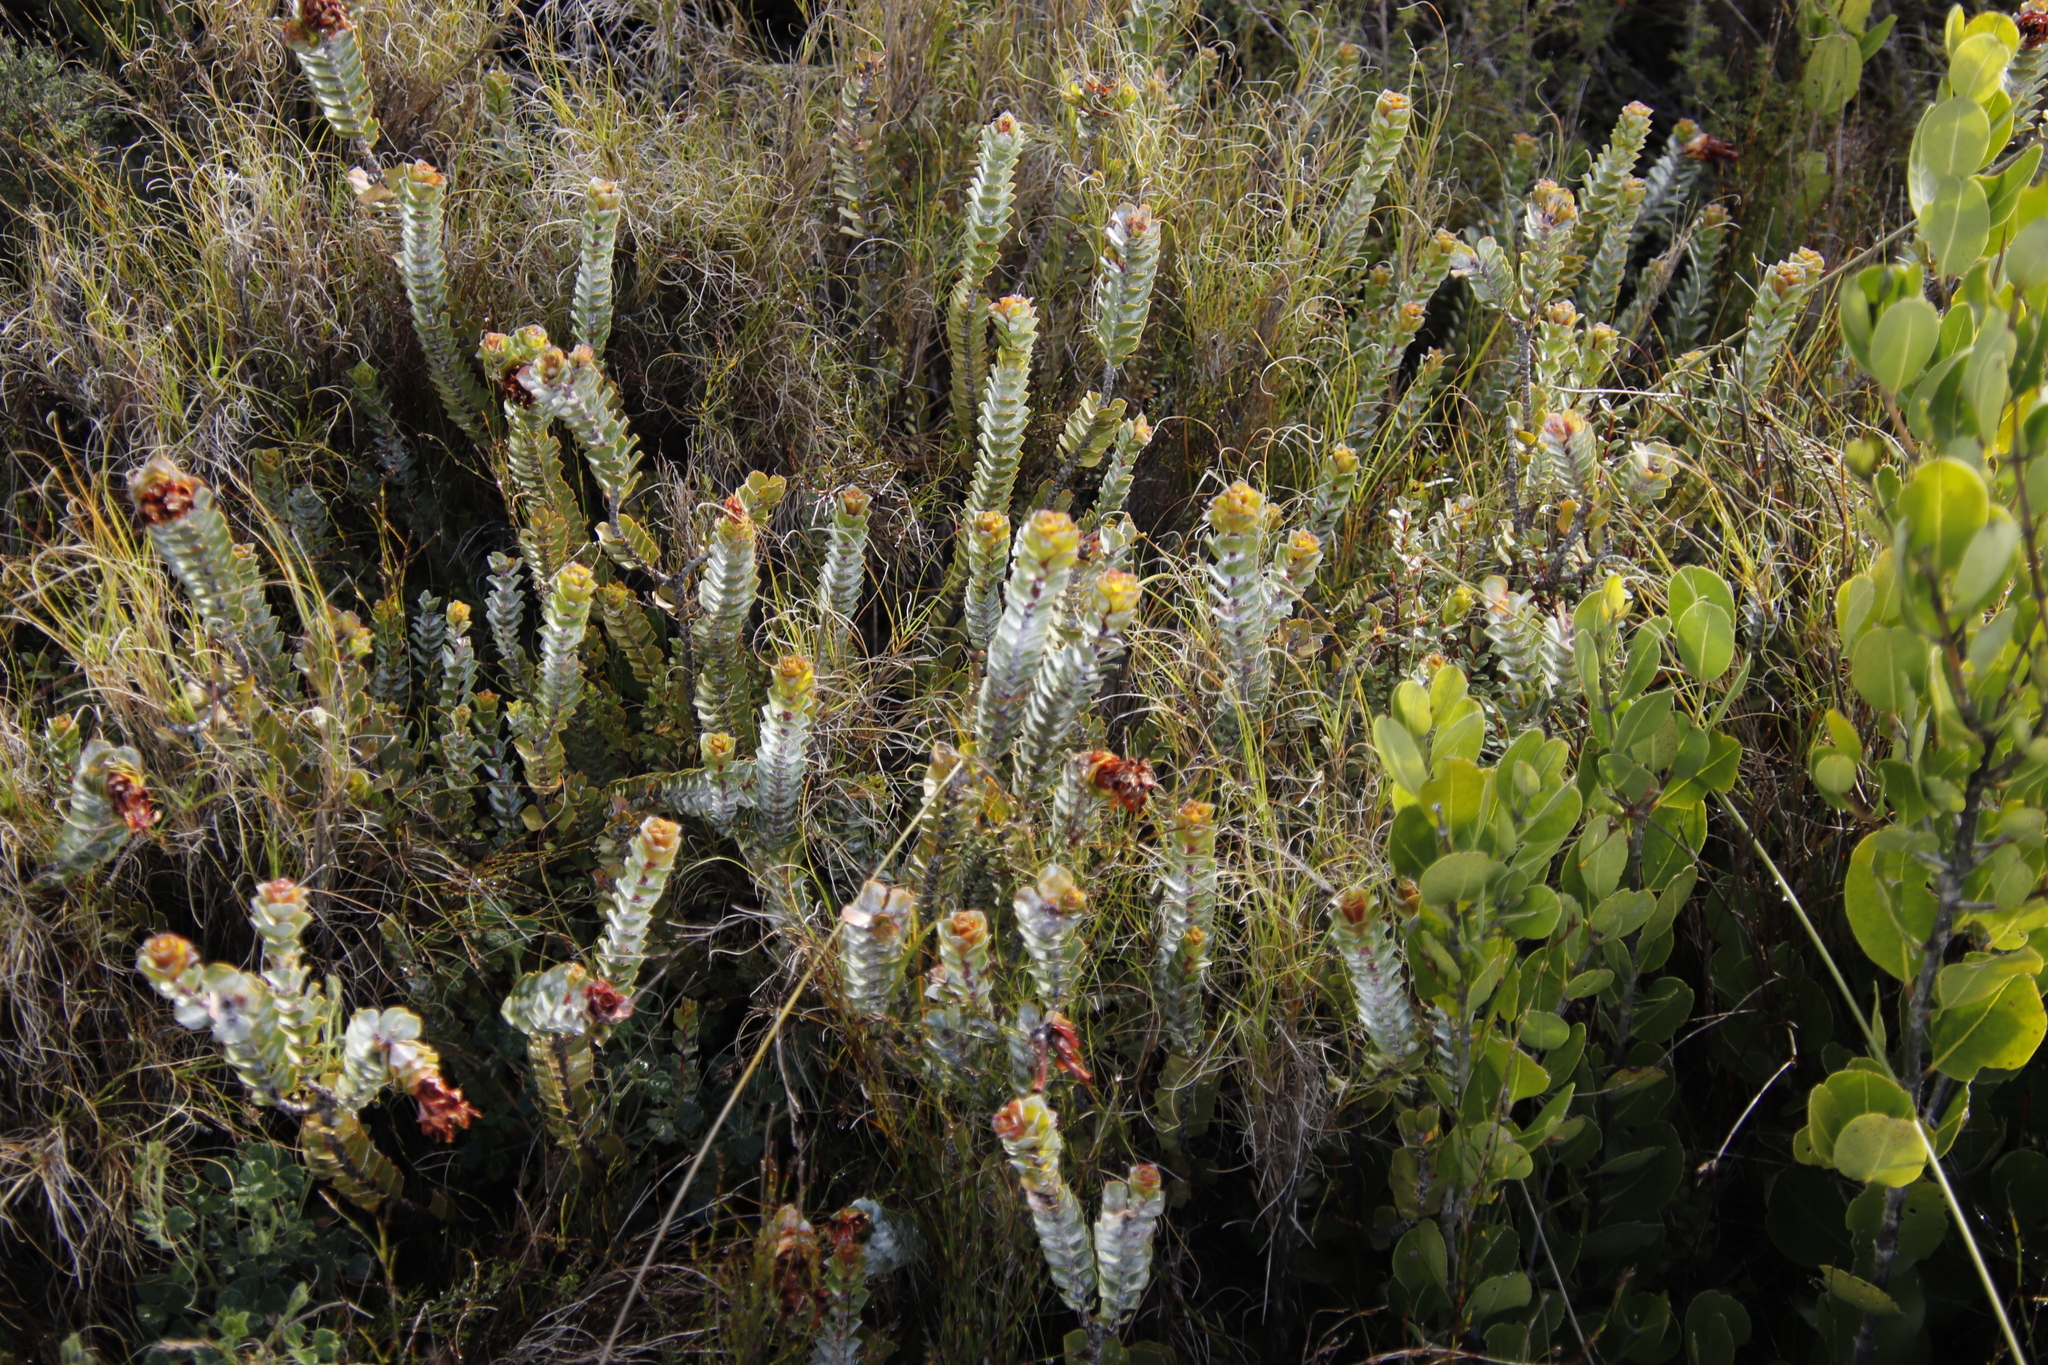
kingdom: Plantae
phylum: Tracheophyta
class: Magnoliopsida
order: Myrtales
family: Penaeaceae
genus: Saltera
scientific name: Saltera sarcocolla
